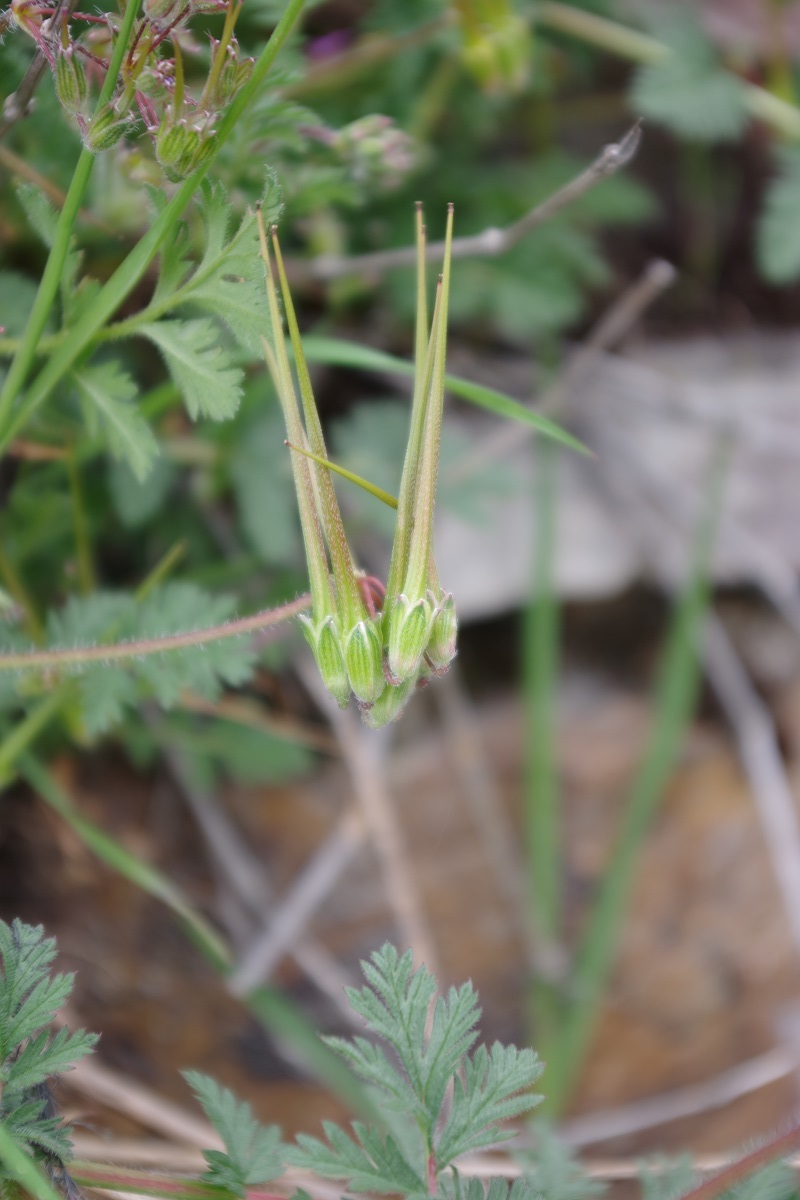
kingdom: Plantae
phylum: Tracheophyta
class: Magnoliopsida
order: Geraniales
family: Geraniaceae
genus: Erodium
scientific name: Erodium cicutarium
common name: Common stork's-bill
